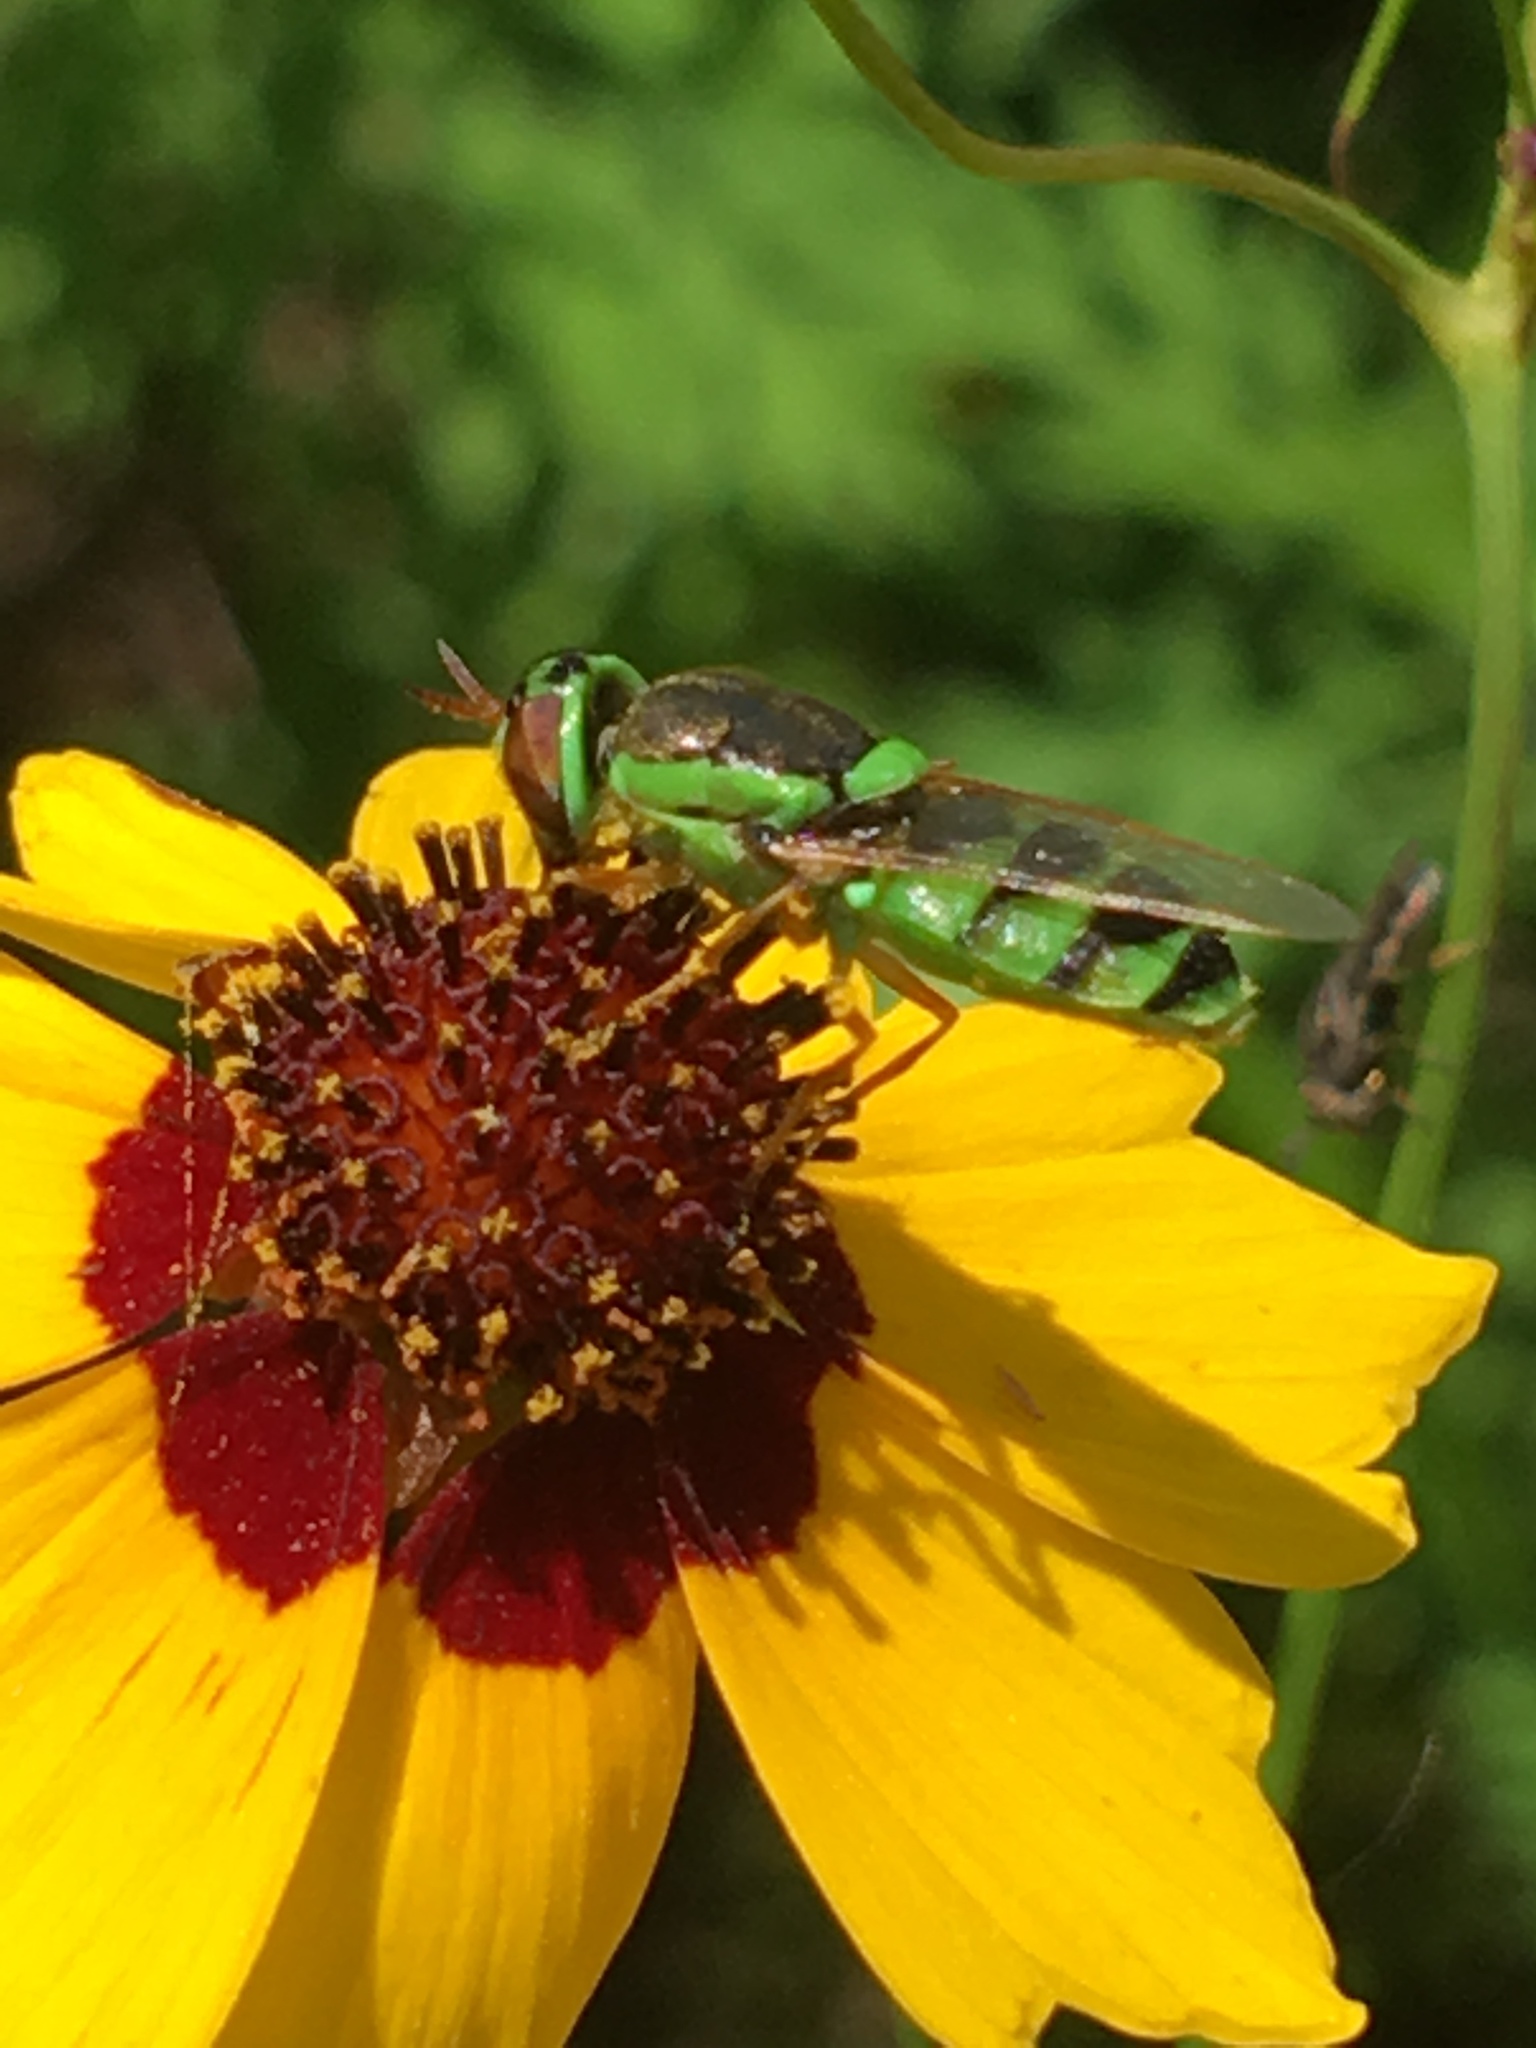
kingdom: Animalia
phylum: Arthropoda
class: Insecta
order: Diptera
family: Stratiomyidae
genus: Odontomyia
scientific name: Odontomyia cincta
